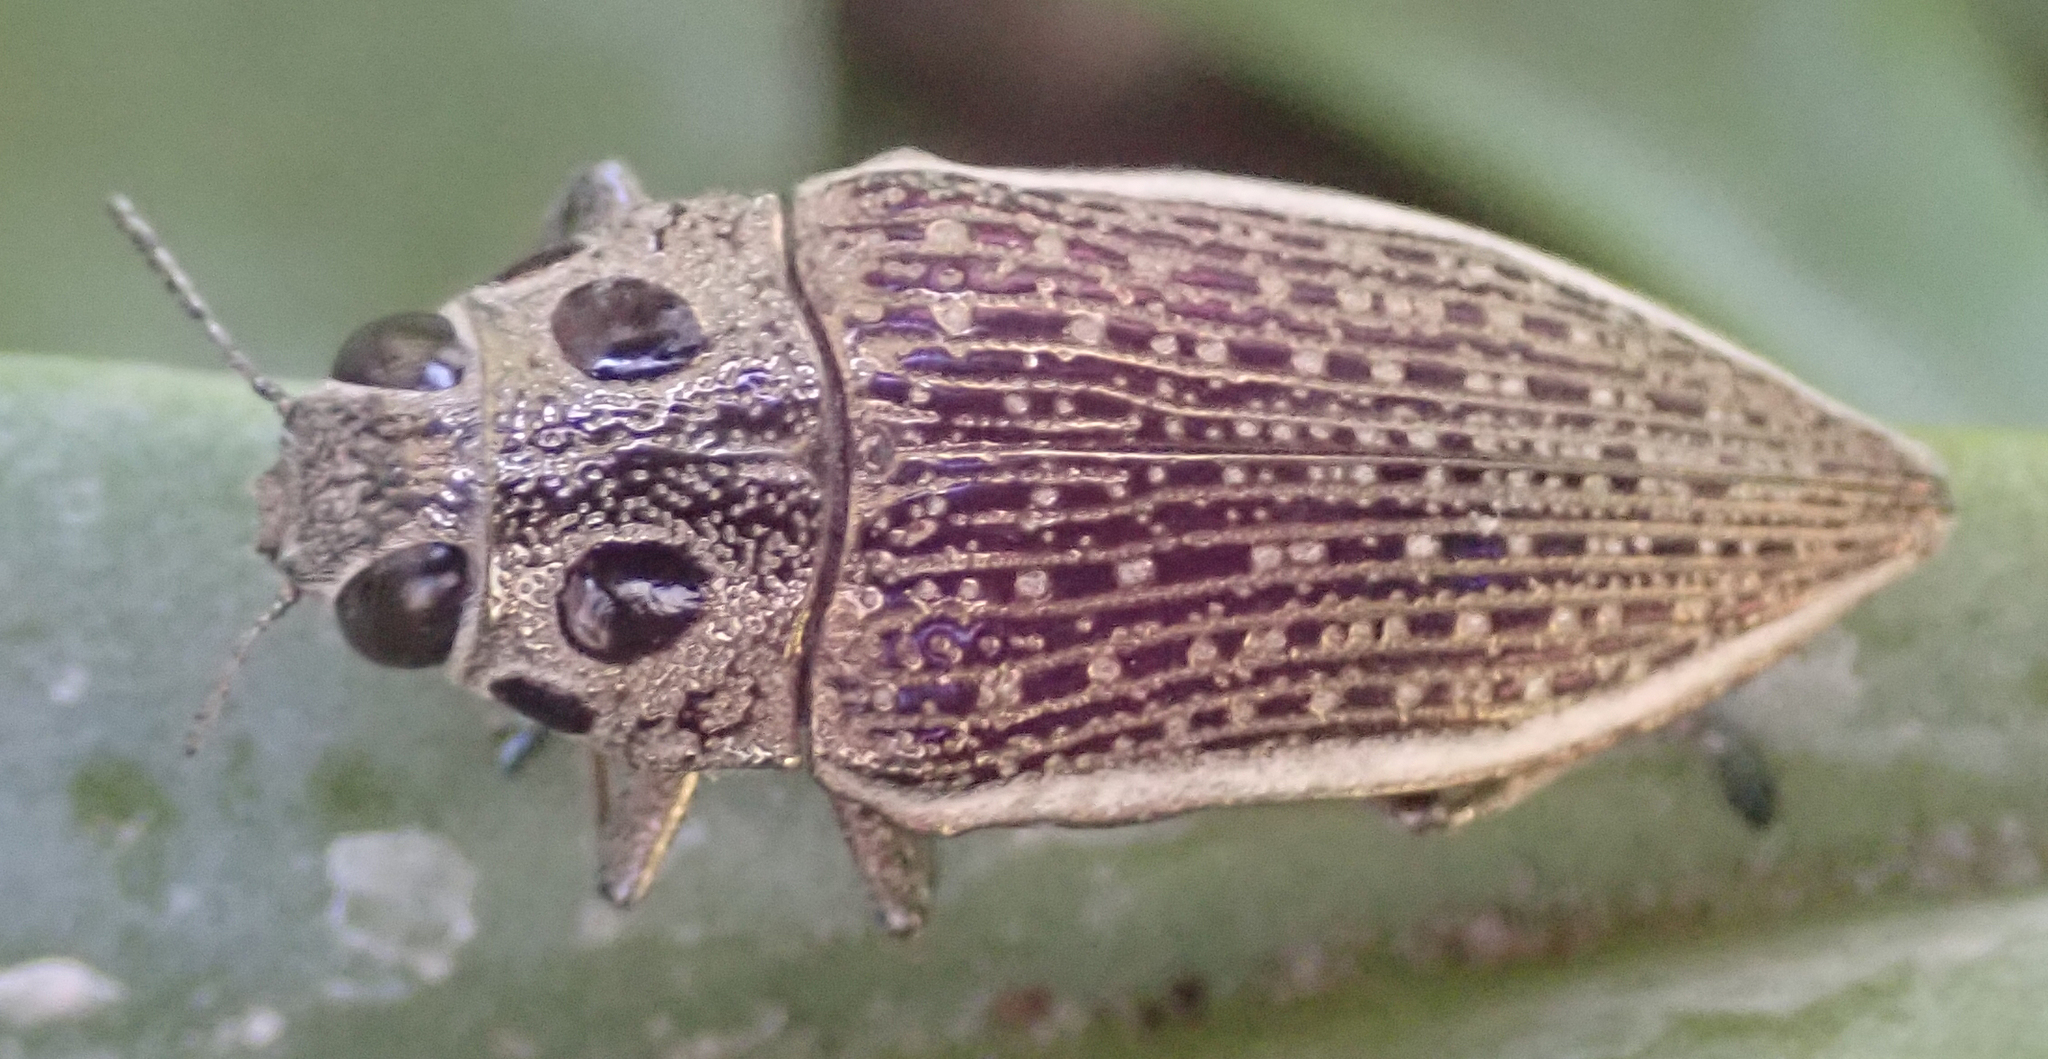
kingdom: Animalia
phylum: Arthropoda
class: Insecta
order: Coleoptera
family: Buprestidae
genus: Lampetis
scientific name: Lampetis amaurotica
